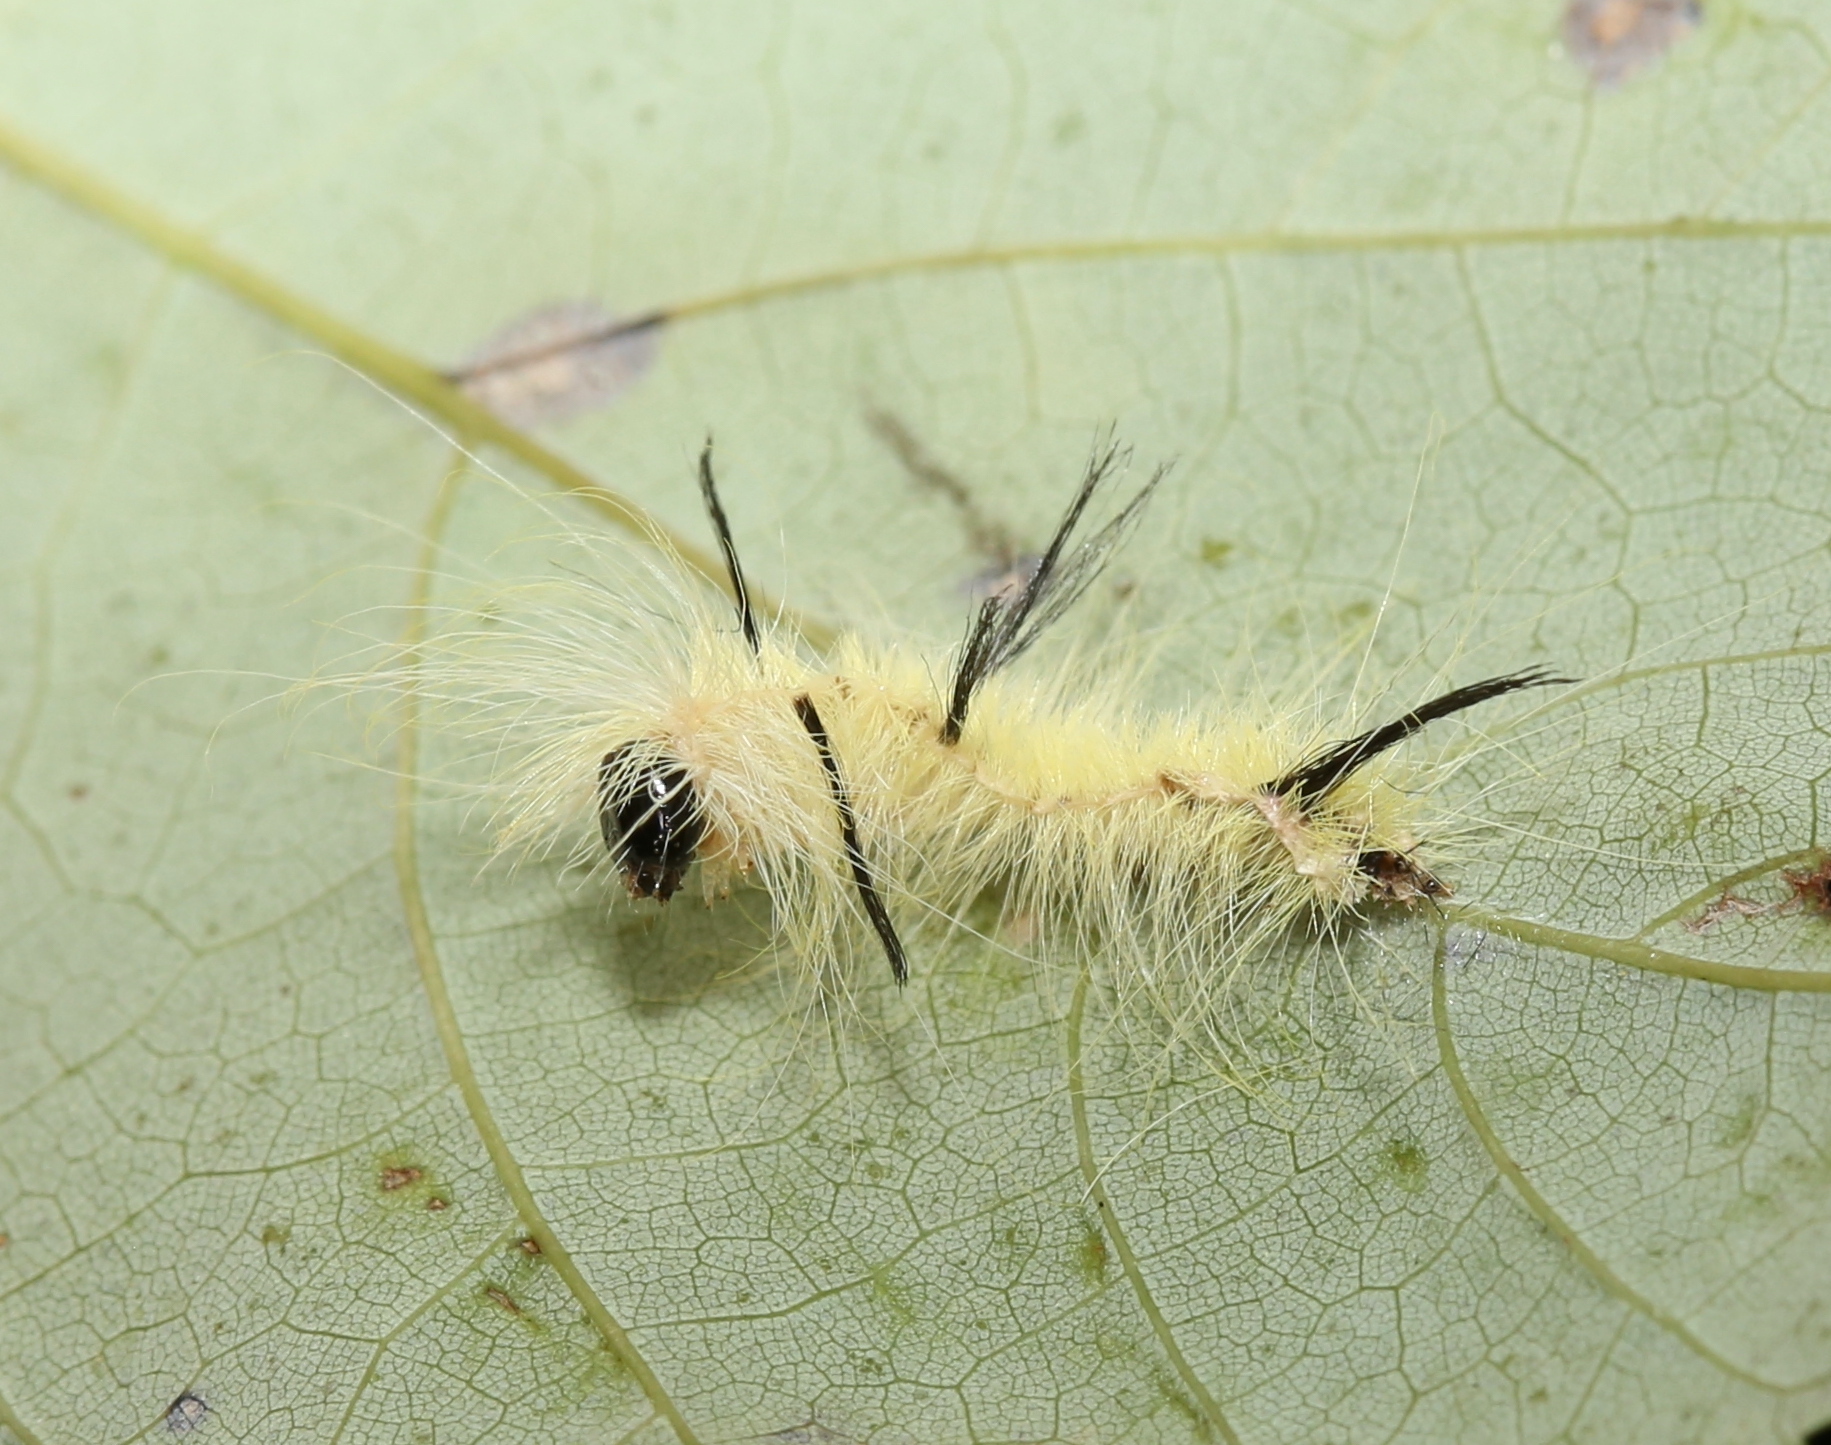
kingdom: Animalia
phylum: Arthropoda
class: Insecta
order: Lepidoptera
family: Noctuidae
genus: Acronicta
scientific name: Acronicta americana
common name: American dagger
